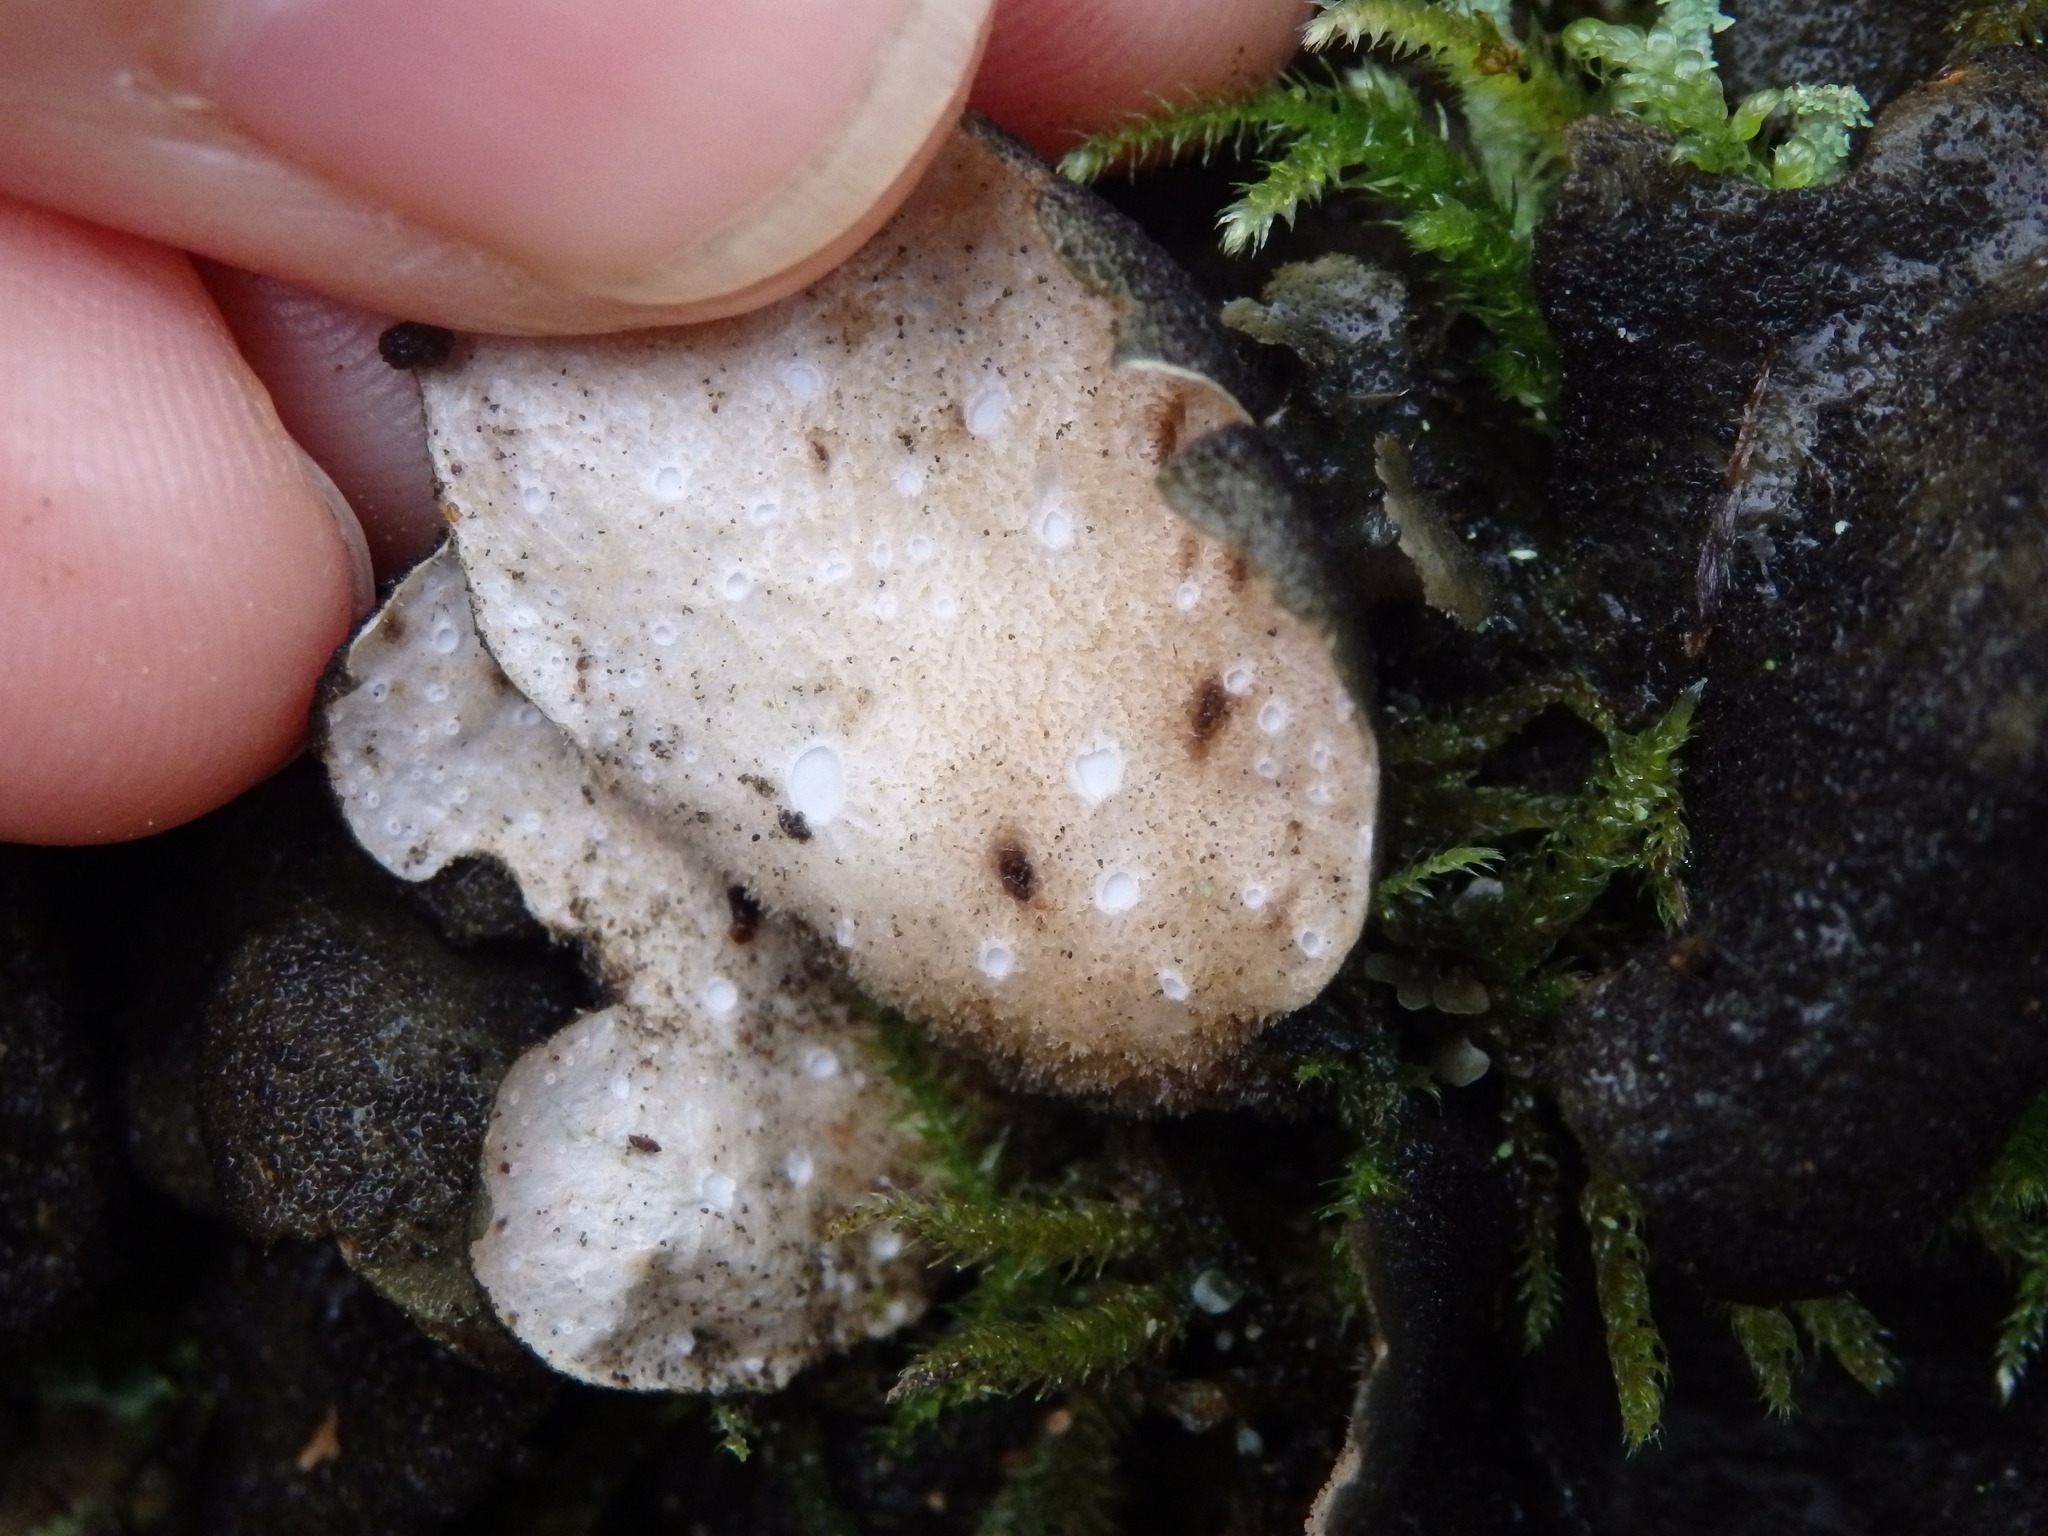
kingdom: Fungi
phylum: Ascomycota
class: Lecanoromycetes
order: Peltigerales
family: Lobariaceae
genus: Sticta
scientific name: Sticta fuliginosa
